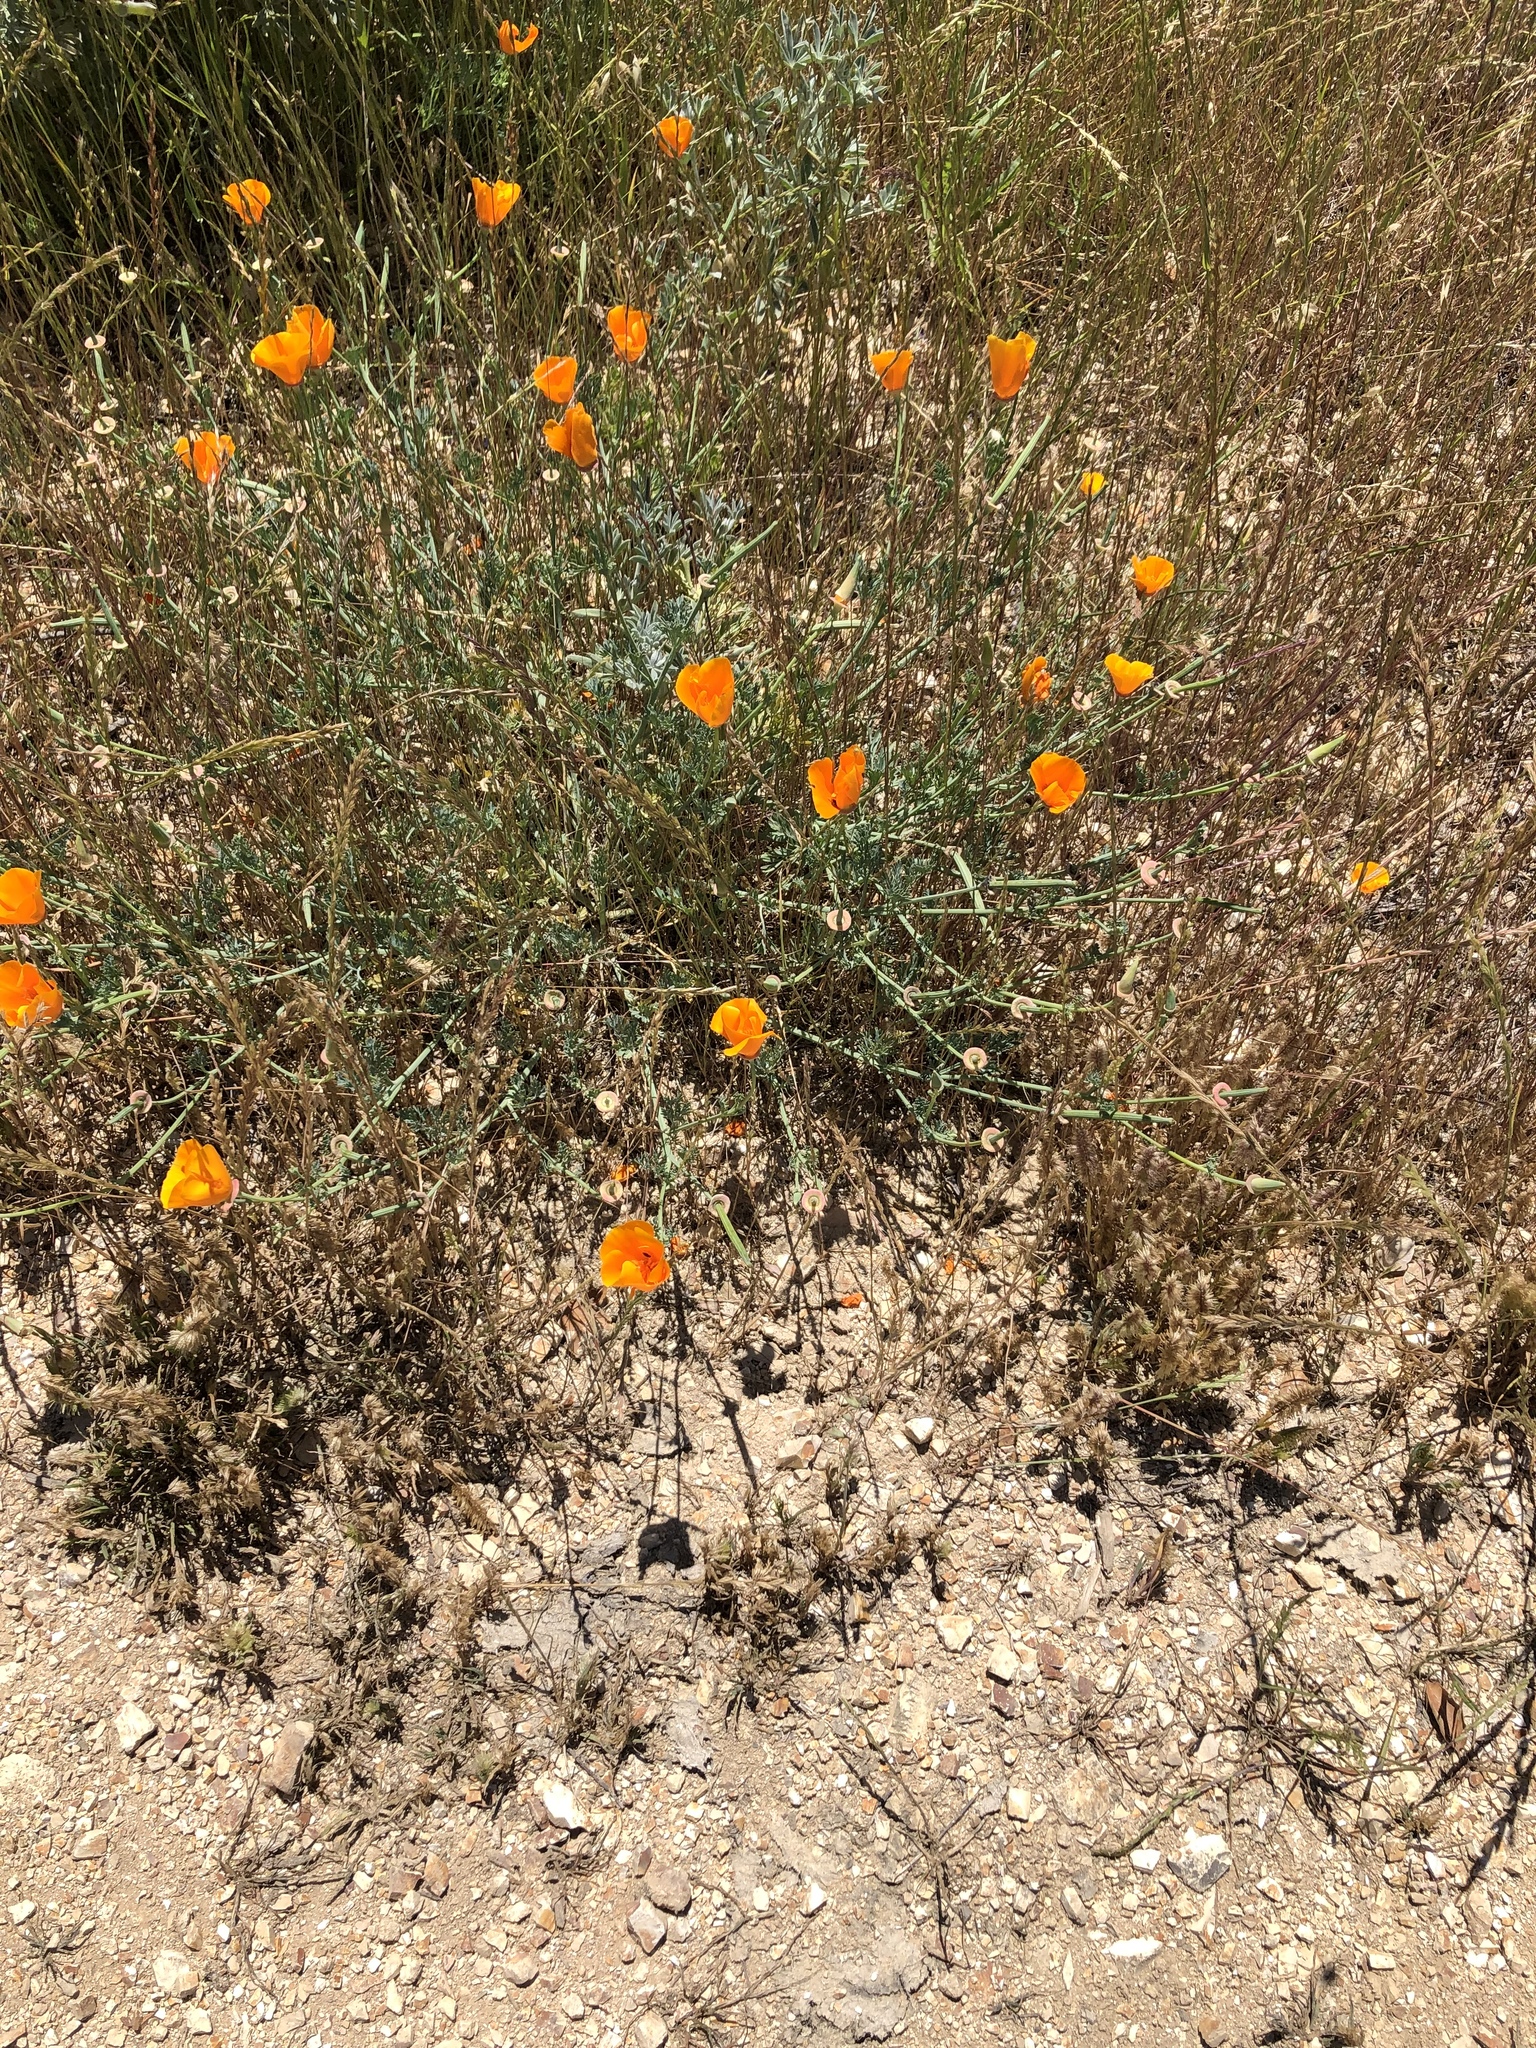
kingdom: Plantae
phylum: Tracheophyta
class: Magnoliopsida
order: Ranunculales
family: Papaveraceae
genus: Eschscholzia
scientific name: Eschscholzia californica
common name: California poppy
